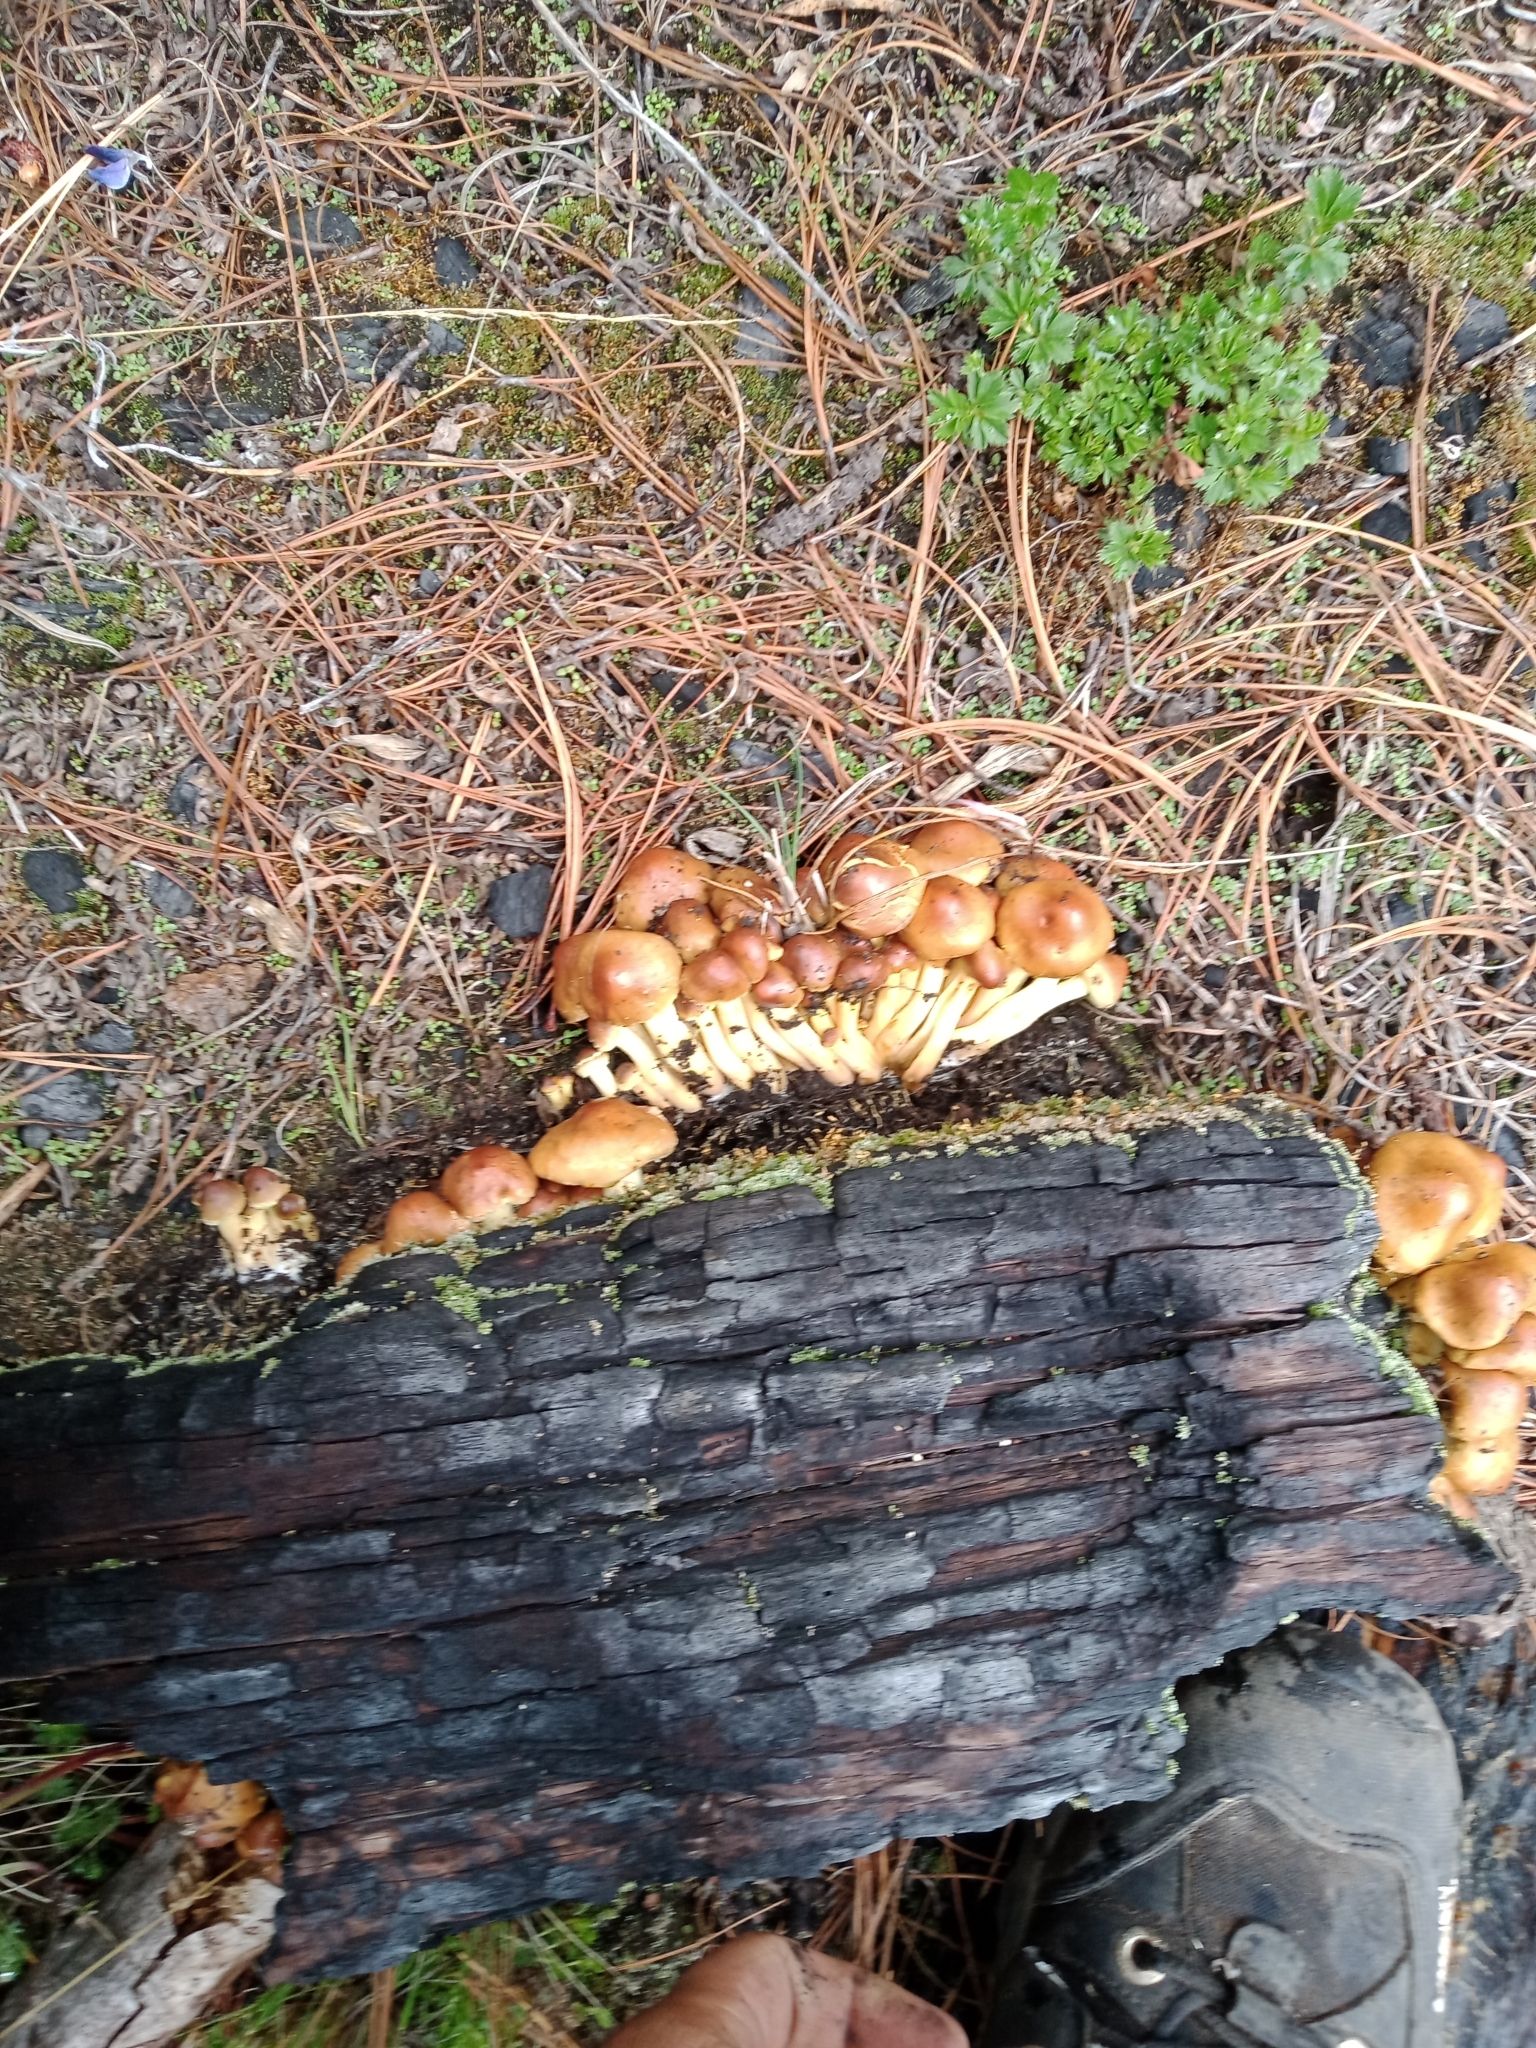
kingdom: Fungi
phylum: Basidiomycota
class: Agaricomycetes
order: Agaricales
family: Strophariaceae
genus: Pholiota
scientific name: Pholiota terrestris
